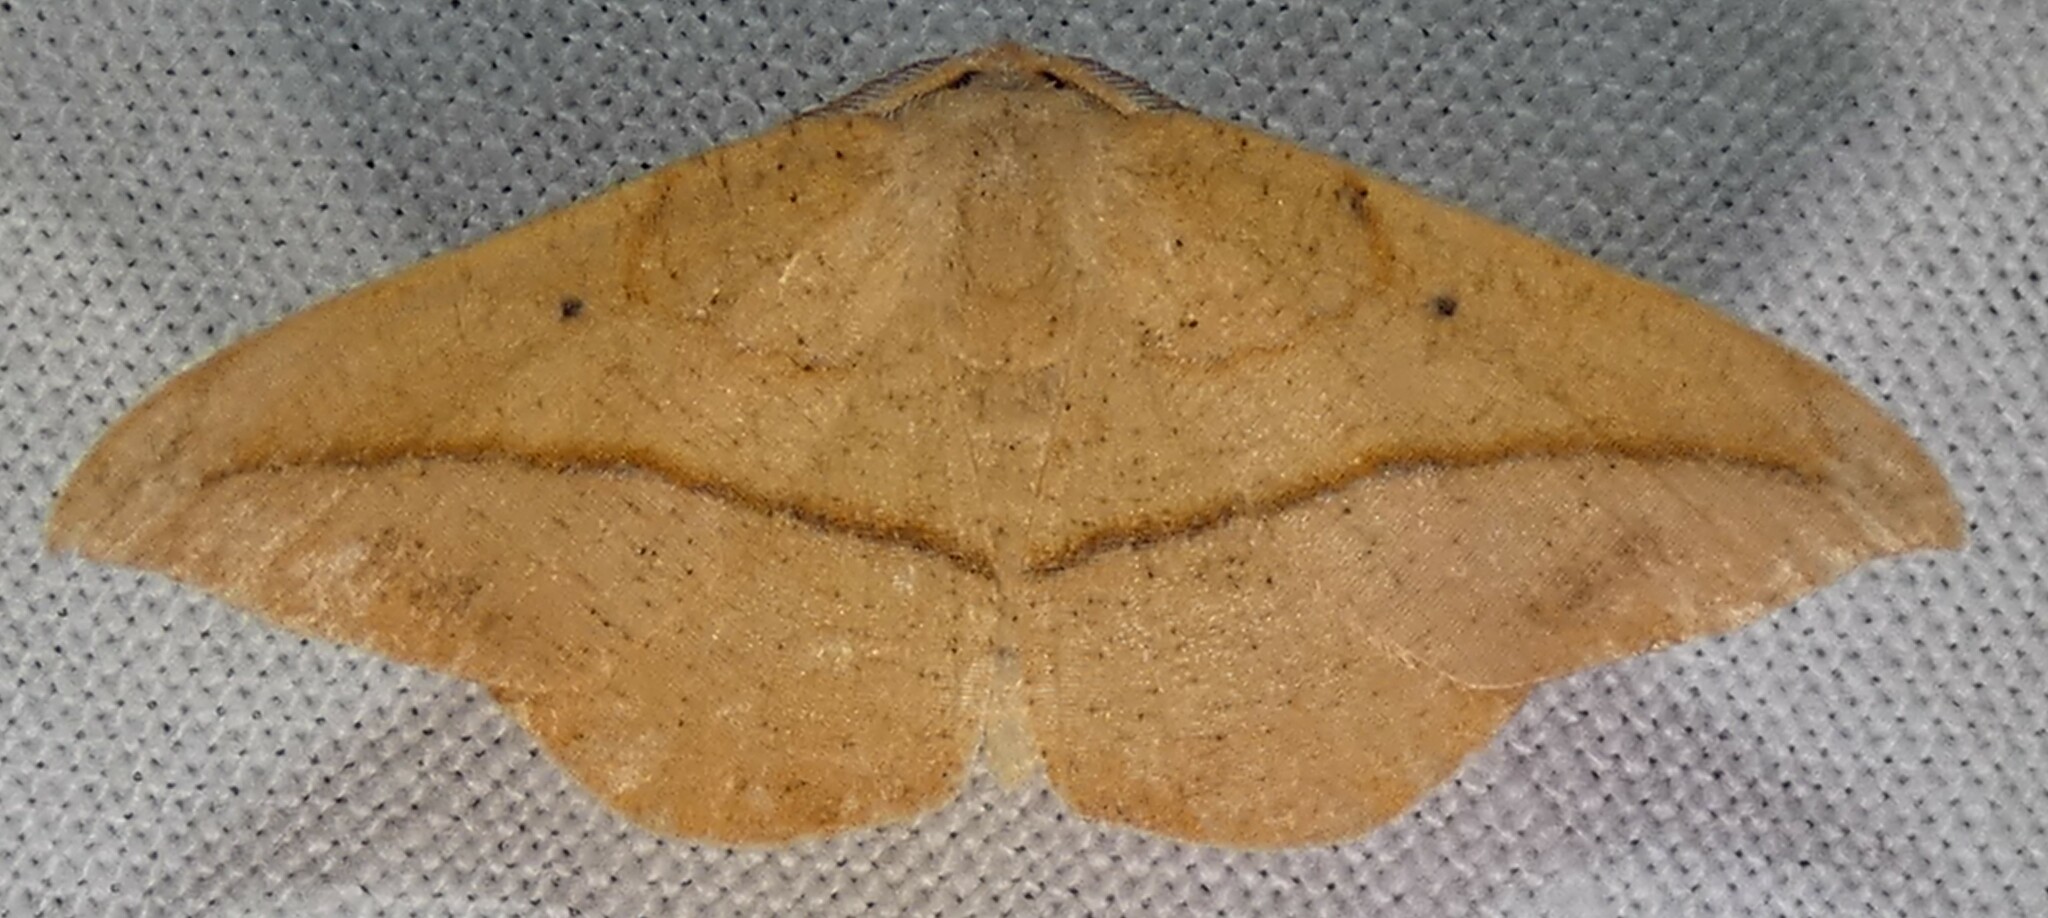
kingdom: Animalia
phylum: Arthropoda
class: Insecta
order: Lepidoptera
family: Geometridae
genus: Patalene
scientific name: Patalene olyzonaria
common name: Juniper geometer moth
